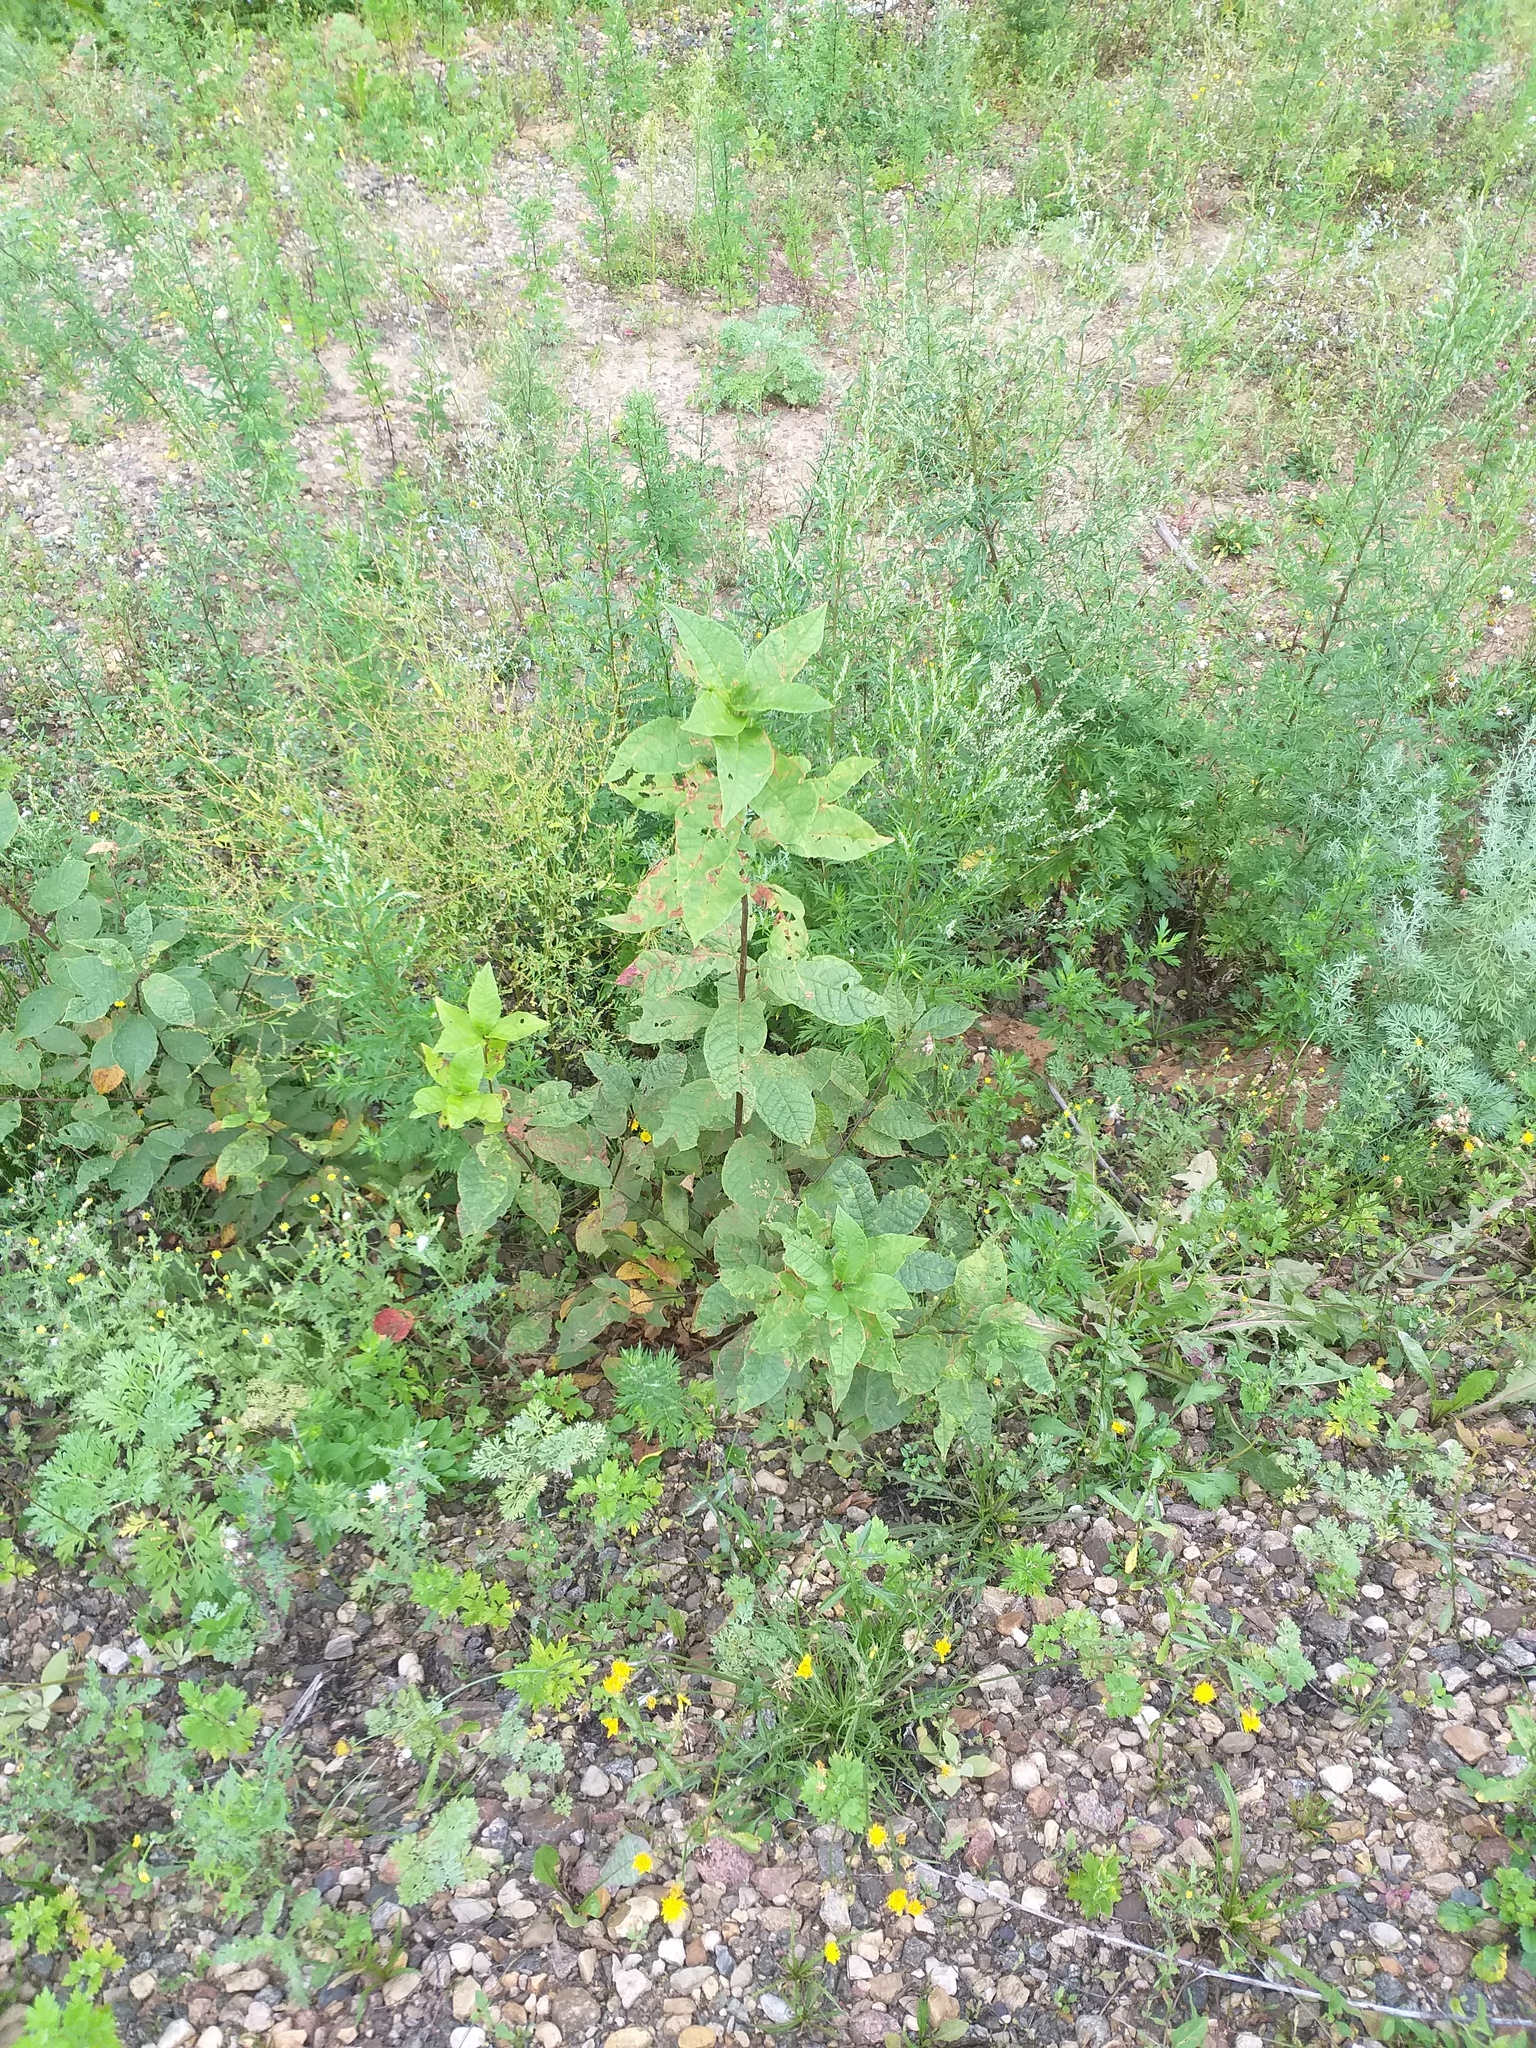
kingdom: Plantae
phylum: Tracheophyta
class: Magnoliopsida
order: Rosales
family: Rosaceae
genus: Prunus
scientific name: Prunus padus
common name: Bird cherry
